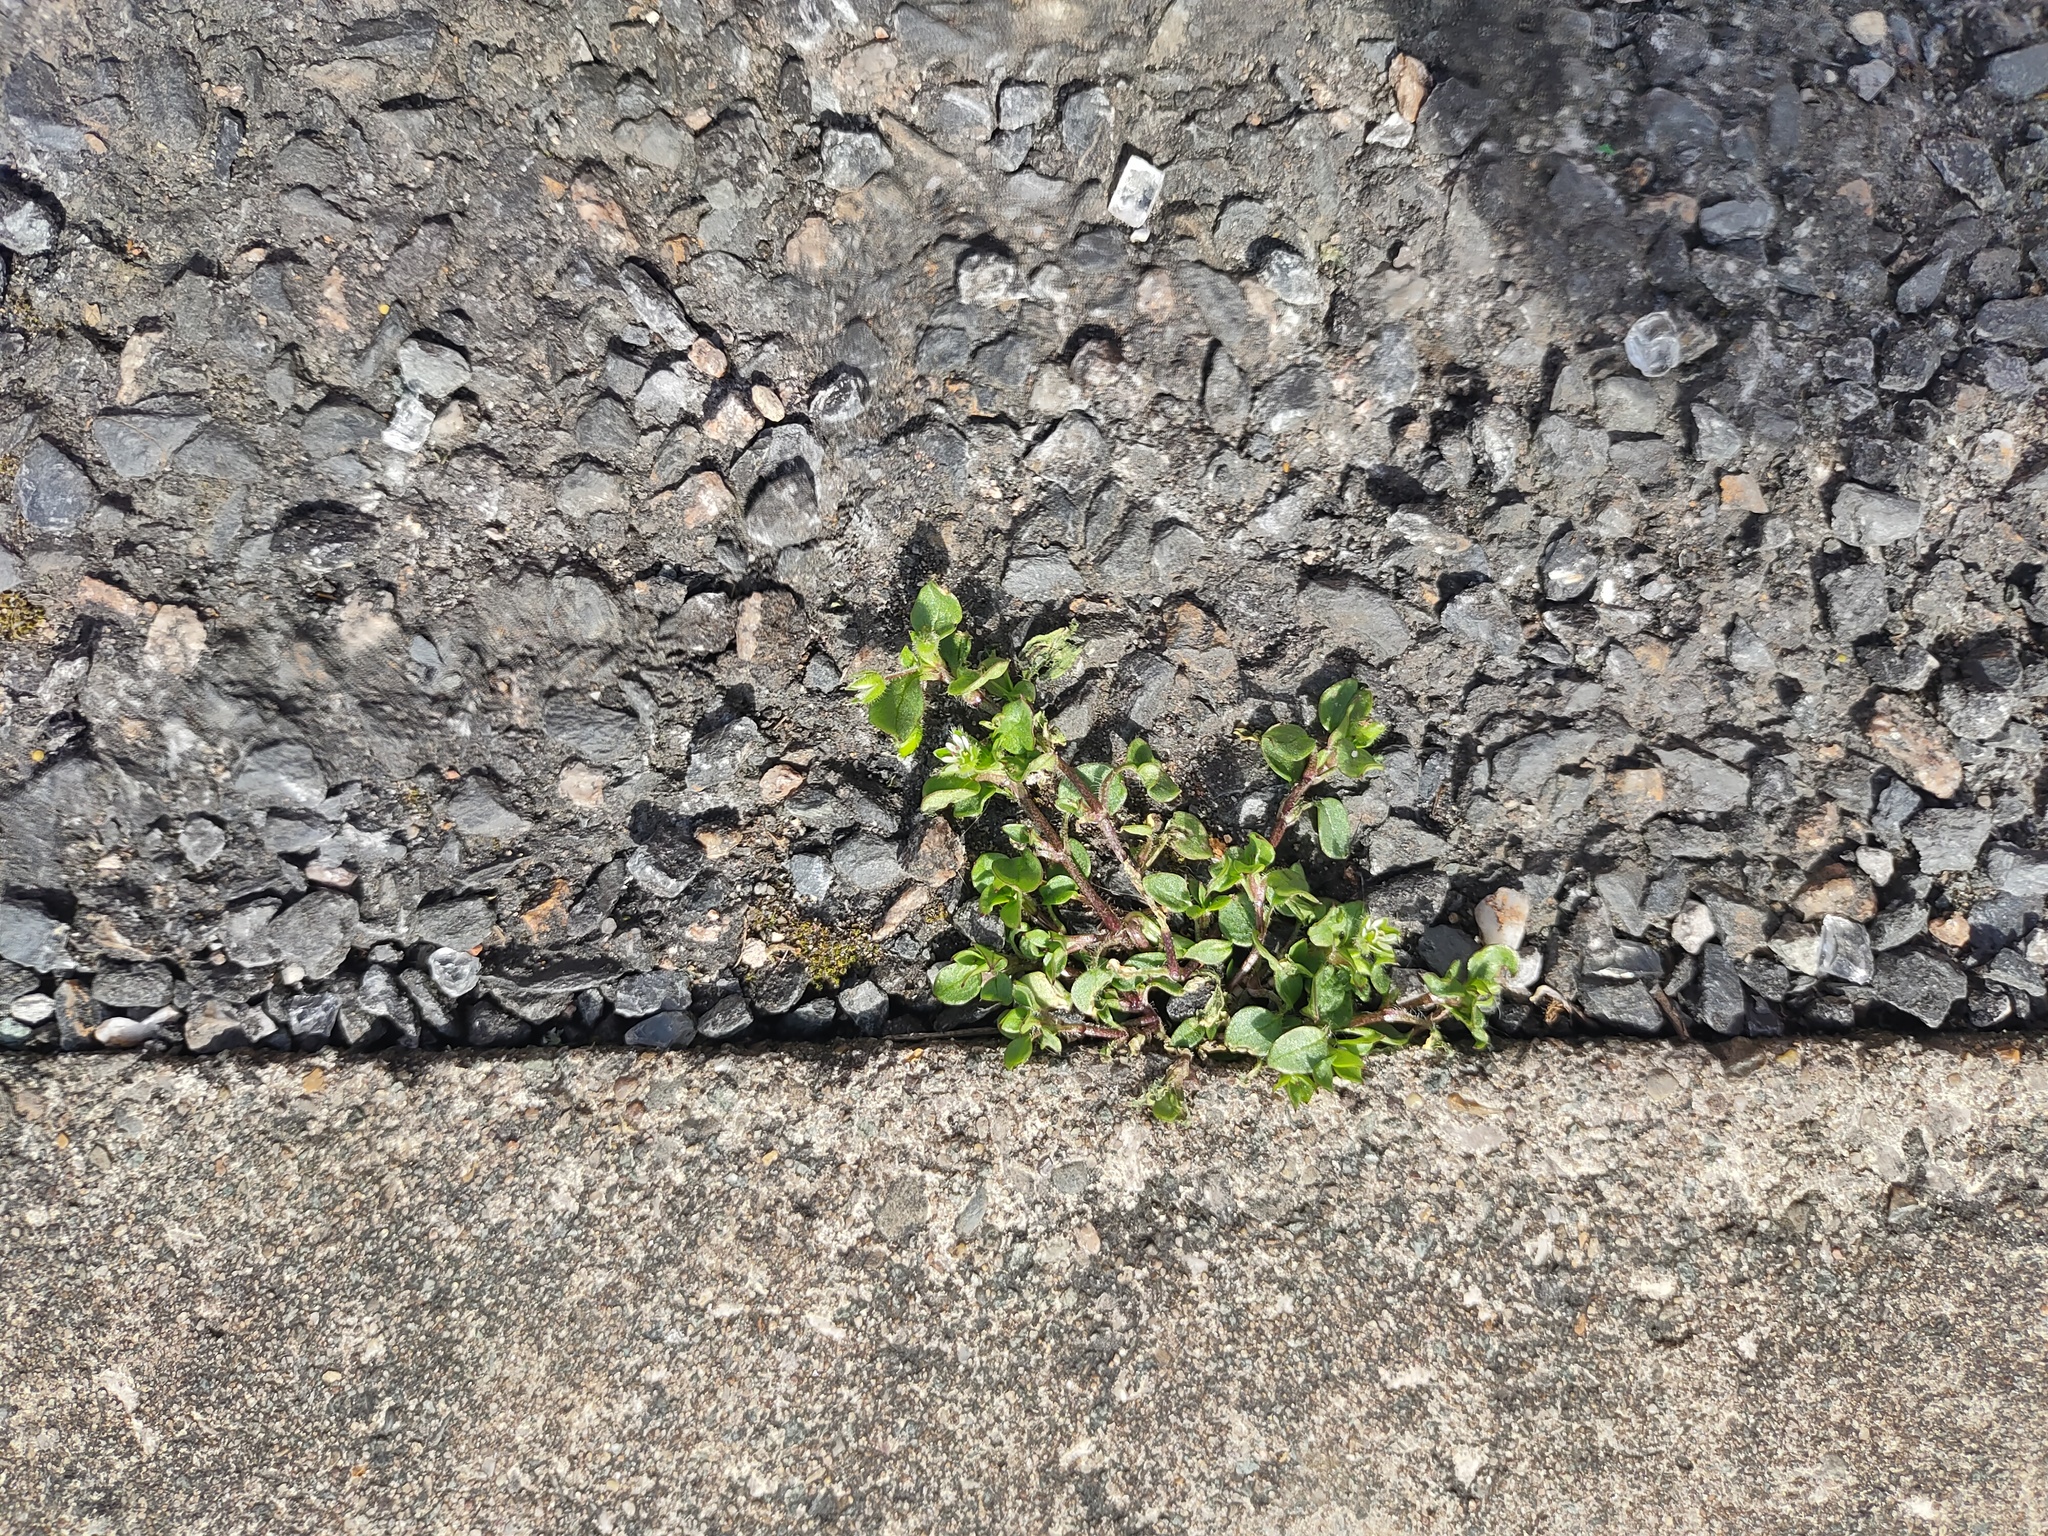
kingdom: Plantae
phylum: Tracheophyta
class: Magnoliopsida
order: Caryophyllales
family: Caryophyllaceae
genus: Stellaria
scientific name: Stellaria media
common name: Common chickweed
